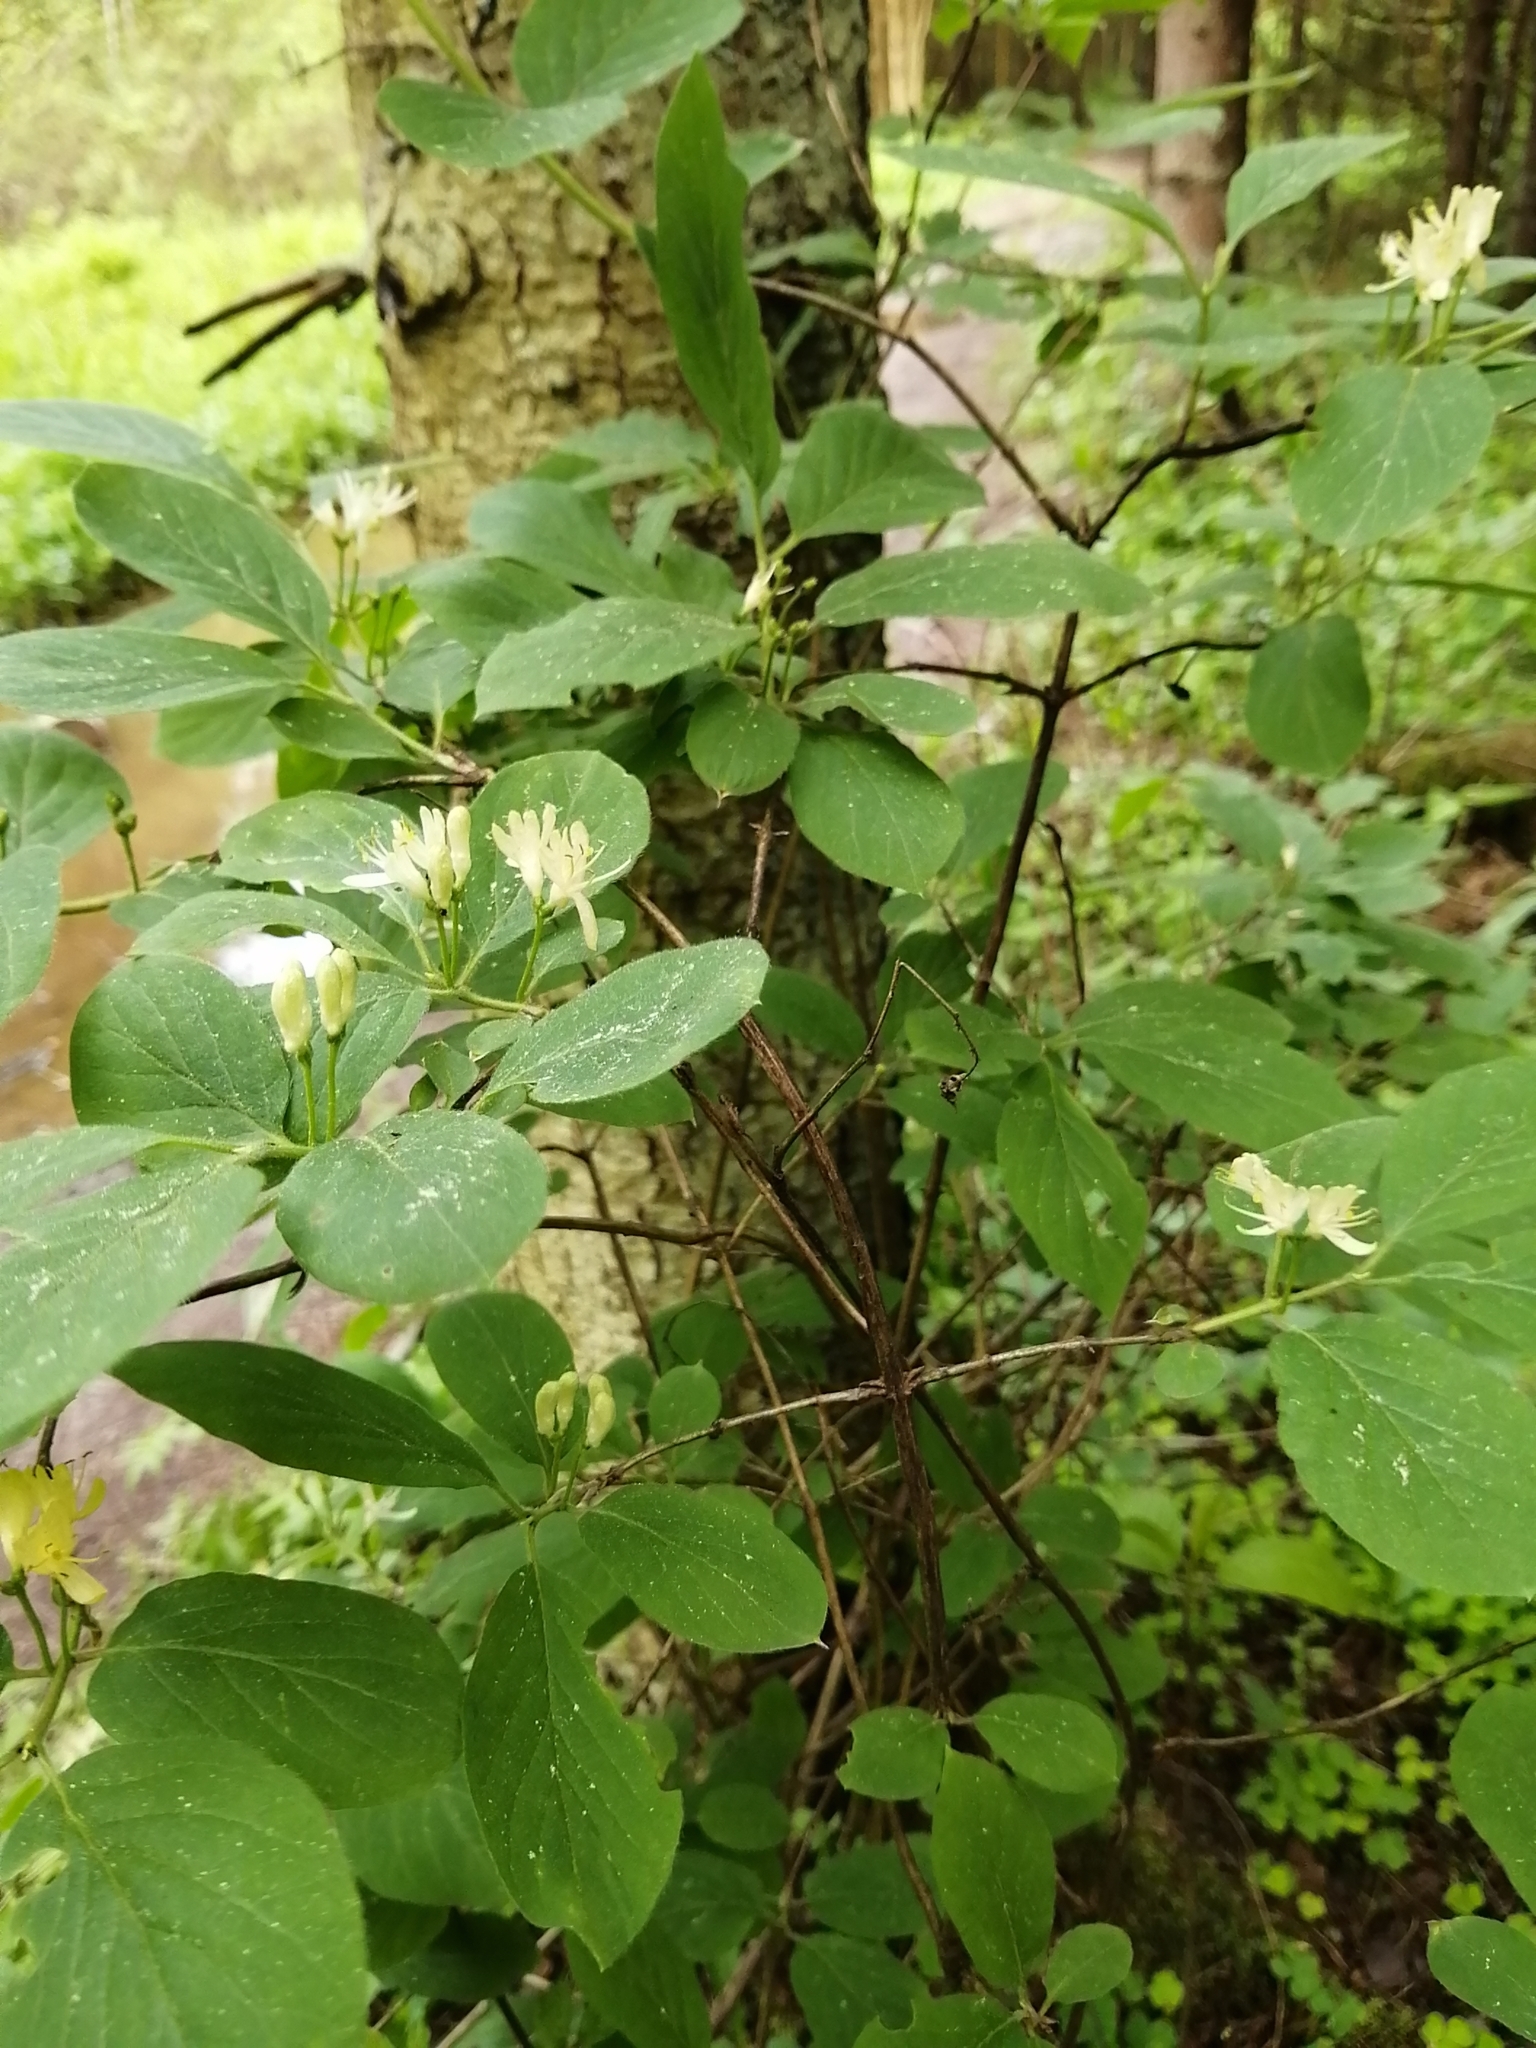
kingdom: Plantae
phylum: Tracheophyta
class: Magnoliopsida
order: Dipsacales
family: Caprifoliaceae
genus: Lonicera
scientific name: Lonicera xylosteum
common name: Fly honeysuckle
